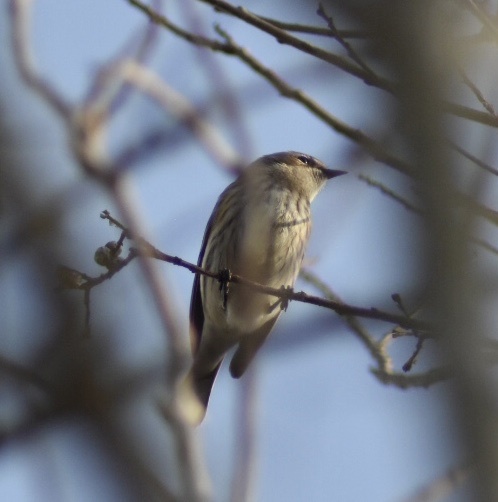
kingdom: Animalia
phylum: Chordata
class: Aves
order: Passeriformes
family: Parulidae
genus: Setophaga
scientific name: Setophaga coronata
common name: Myrtle warbler
